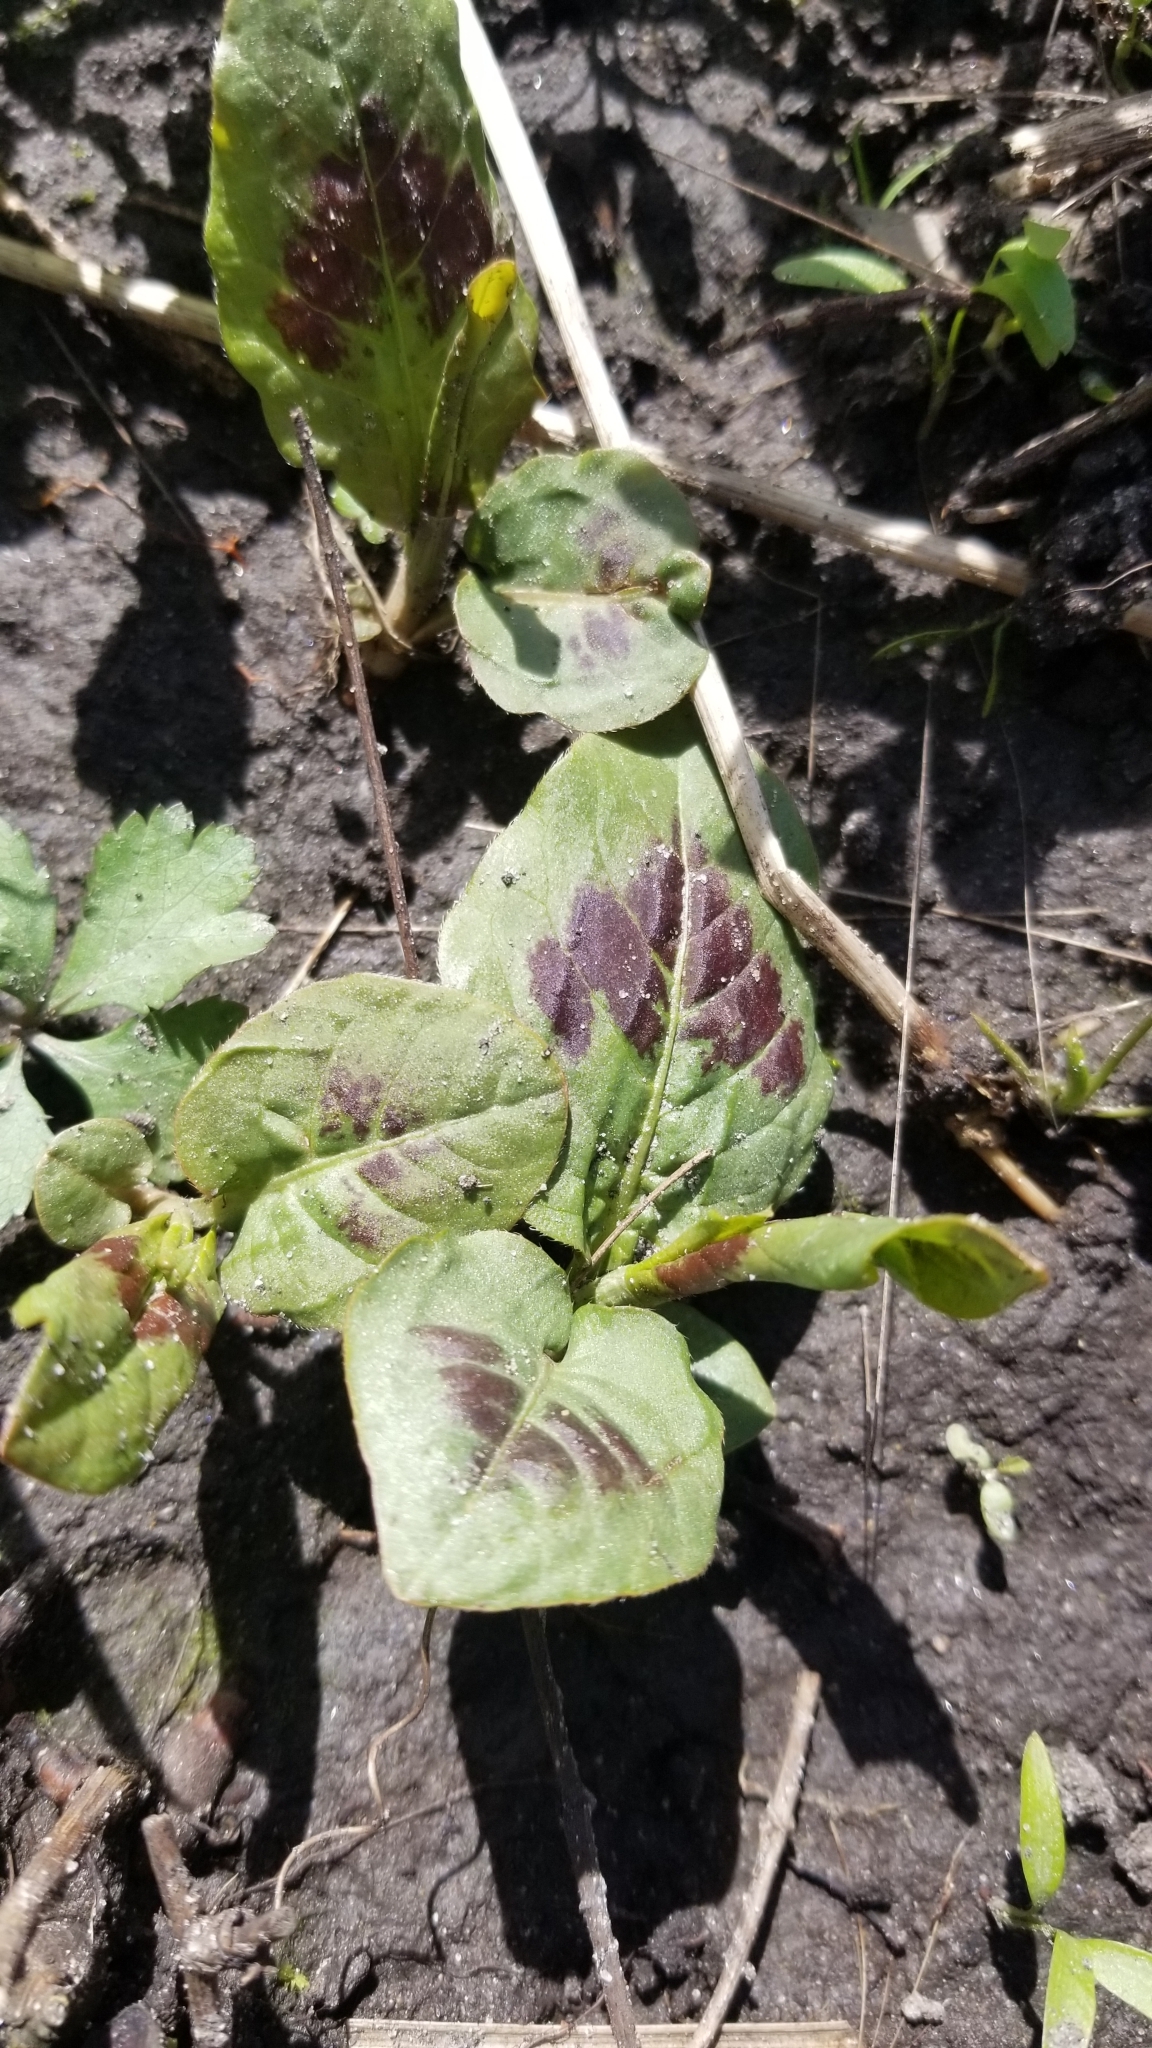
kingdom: Plantae
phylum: Tracheophyta
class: Magnoliopsida
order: Caryophyllales
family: Polygonaceae
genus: Persicaria
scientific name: Persicaria virginiana
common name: Jumpseed
